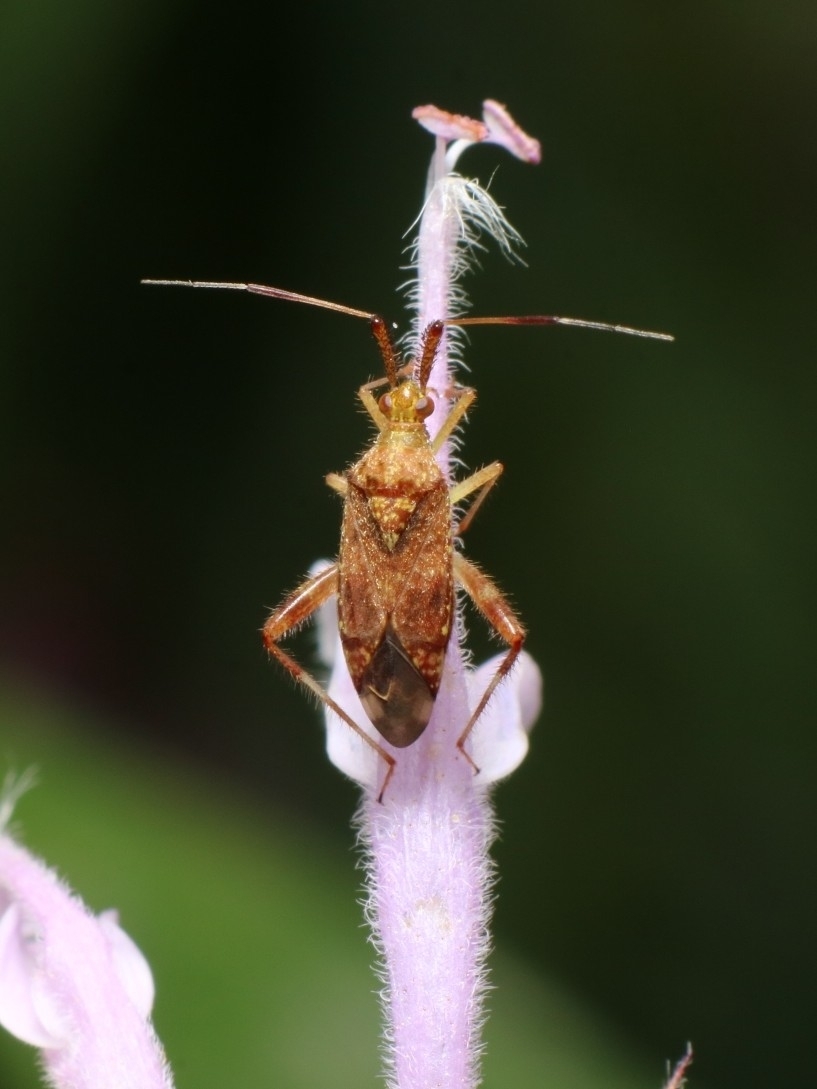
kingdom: Animalia
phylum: Arthropoda
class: Insecta
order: Hemiptera
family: Miridae
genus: Neurocolpus
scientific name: Neurocolpus nubilus
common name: Clouded plant bug
